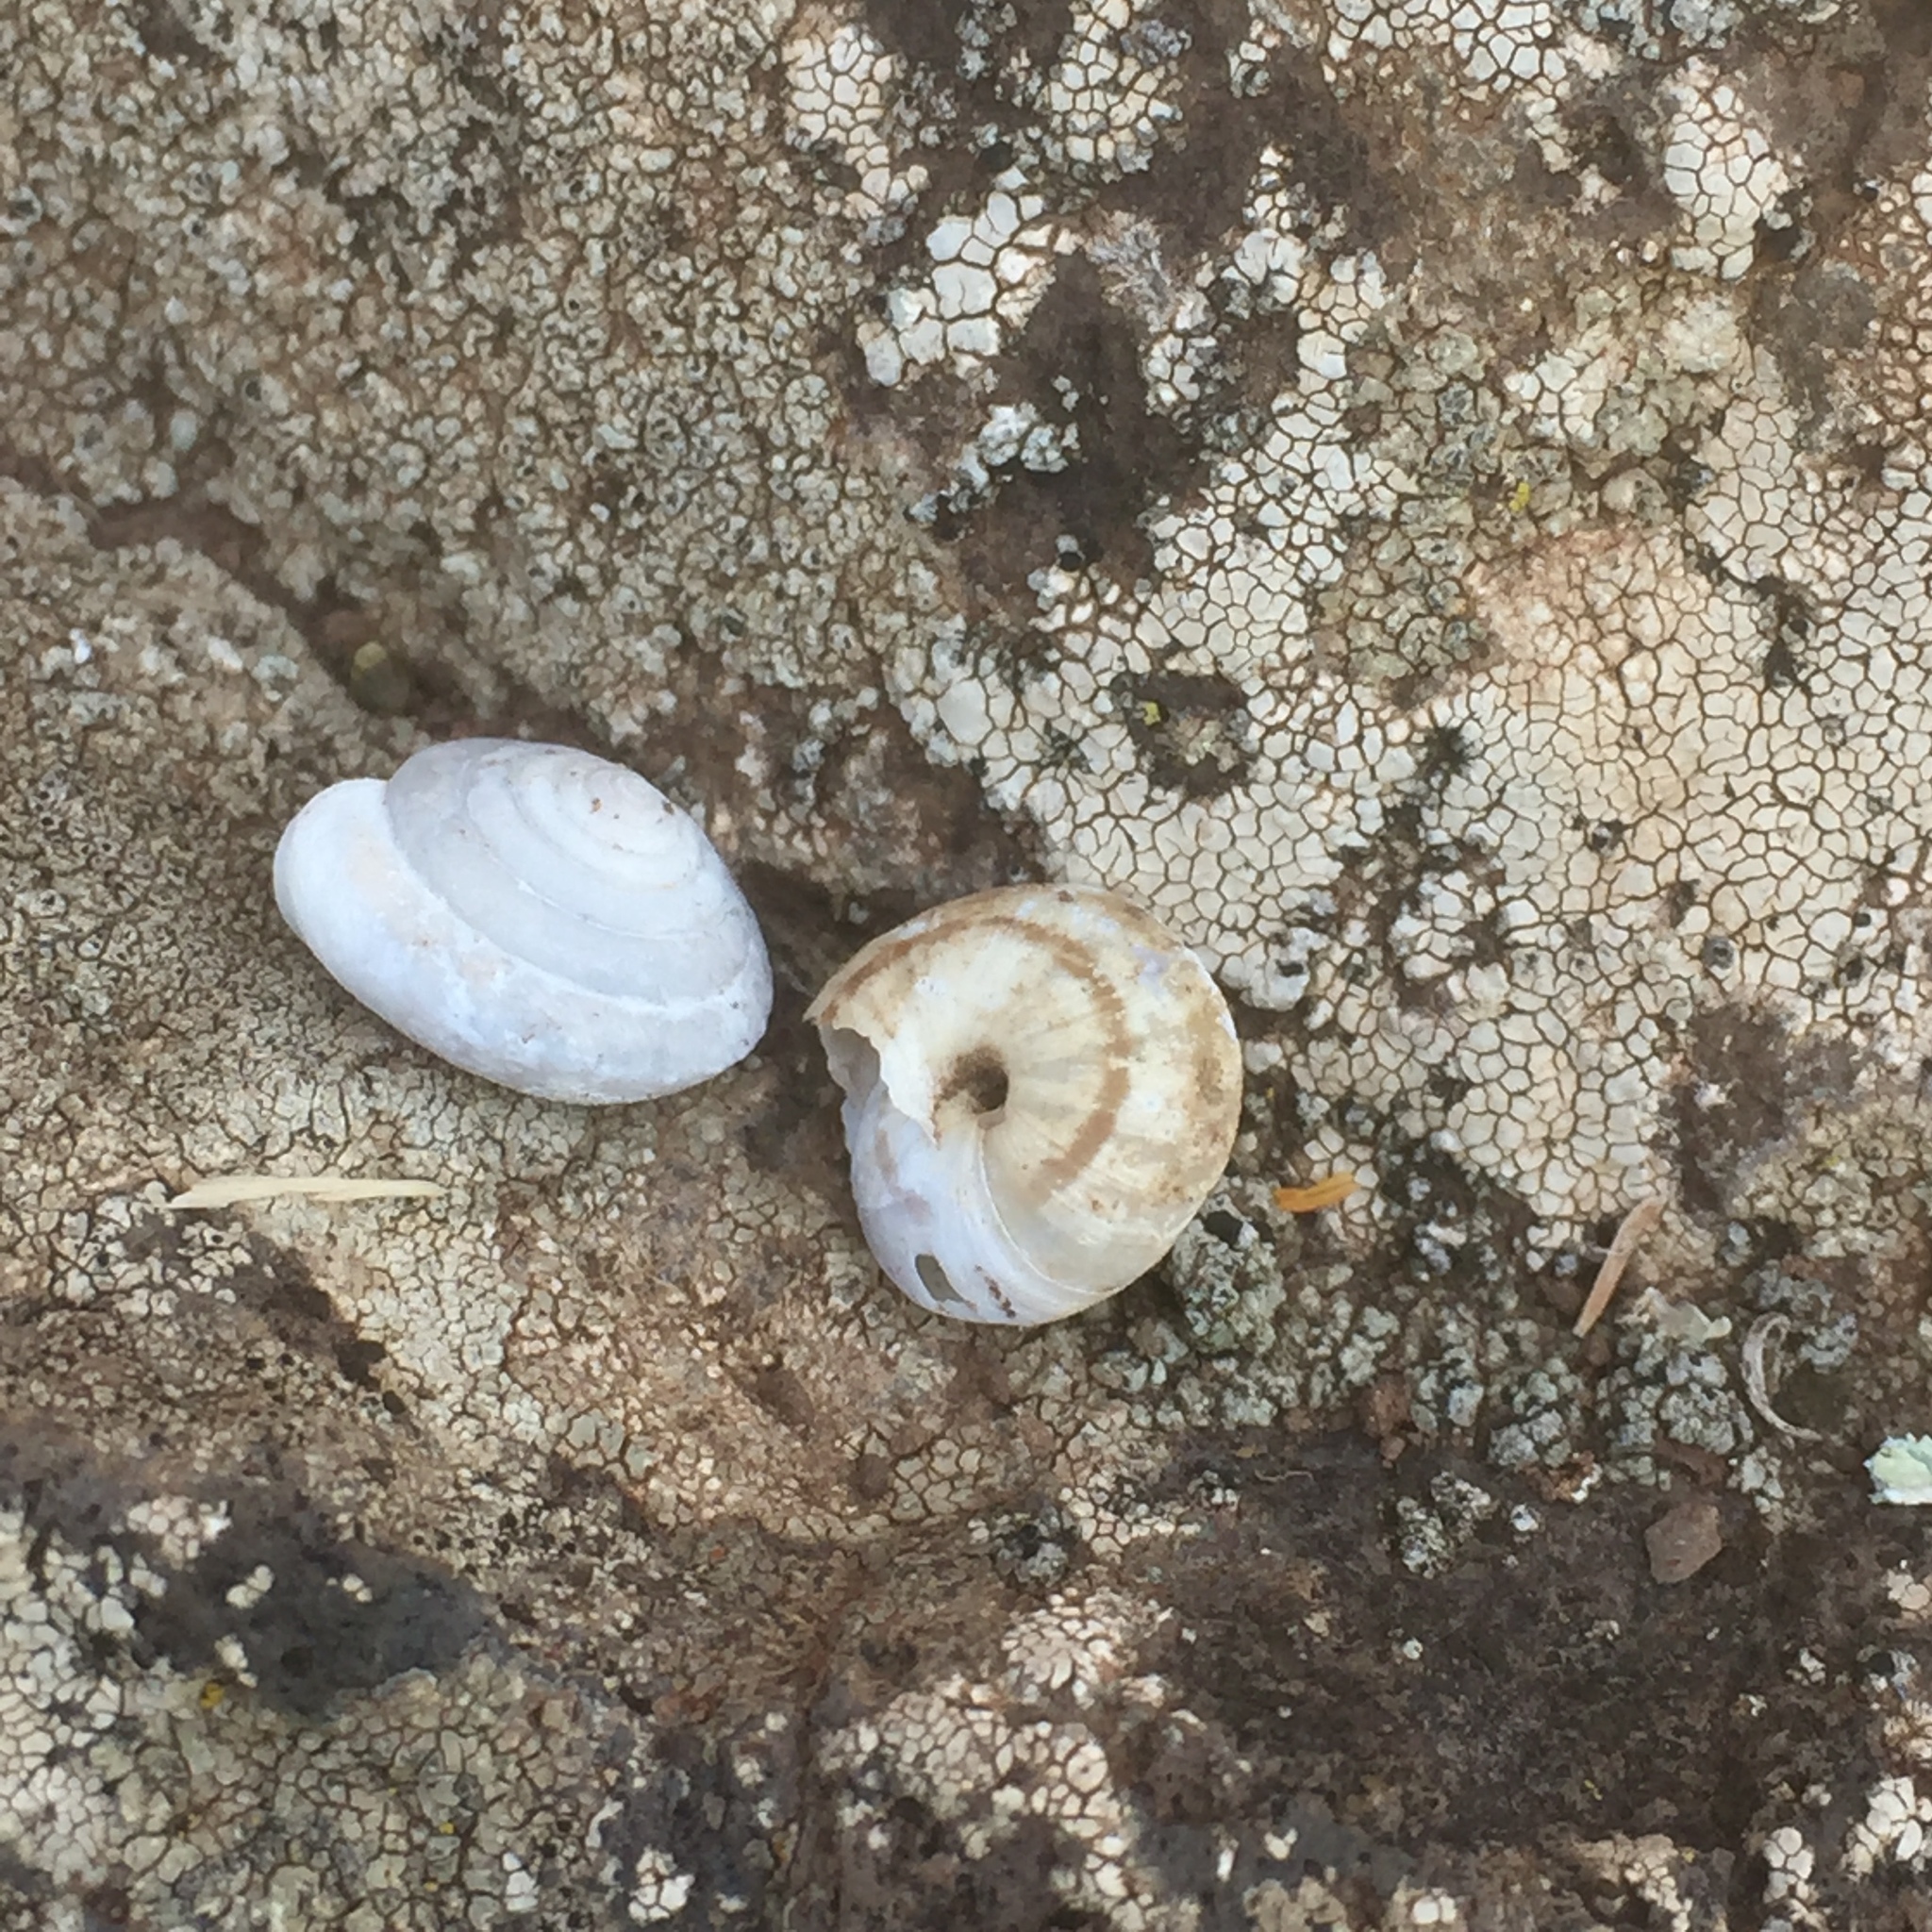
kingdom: Animalia
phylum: Mollusca
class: Gastropoda
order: Stylommatophora
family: Helicidae
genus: Discula
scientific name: Discula polymorpha
